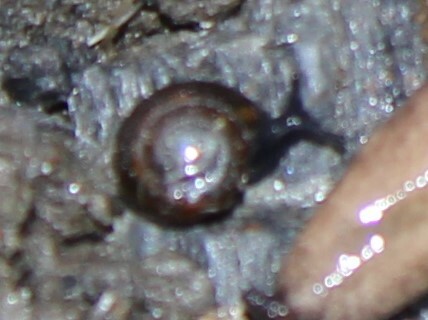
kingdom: Animalia
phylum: Mollusca
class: Gastropoda
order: Stylommatophora
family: Gastrodontidae
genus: Zonitoides
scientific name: Zonitoides nitidus
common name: Shiny glass snail
